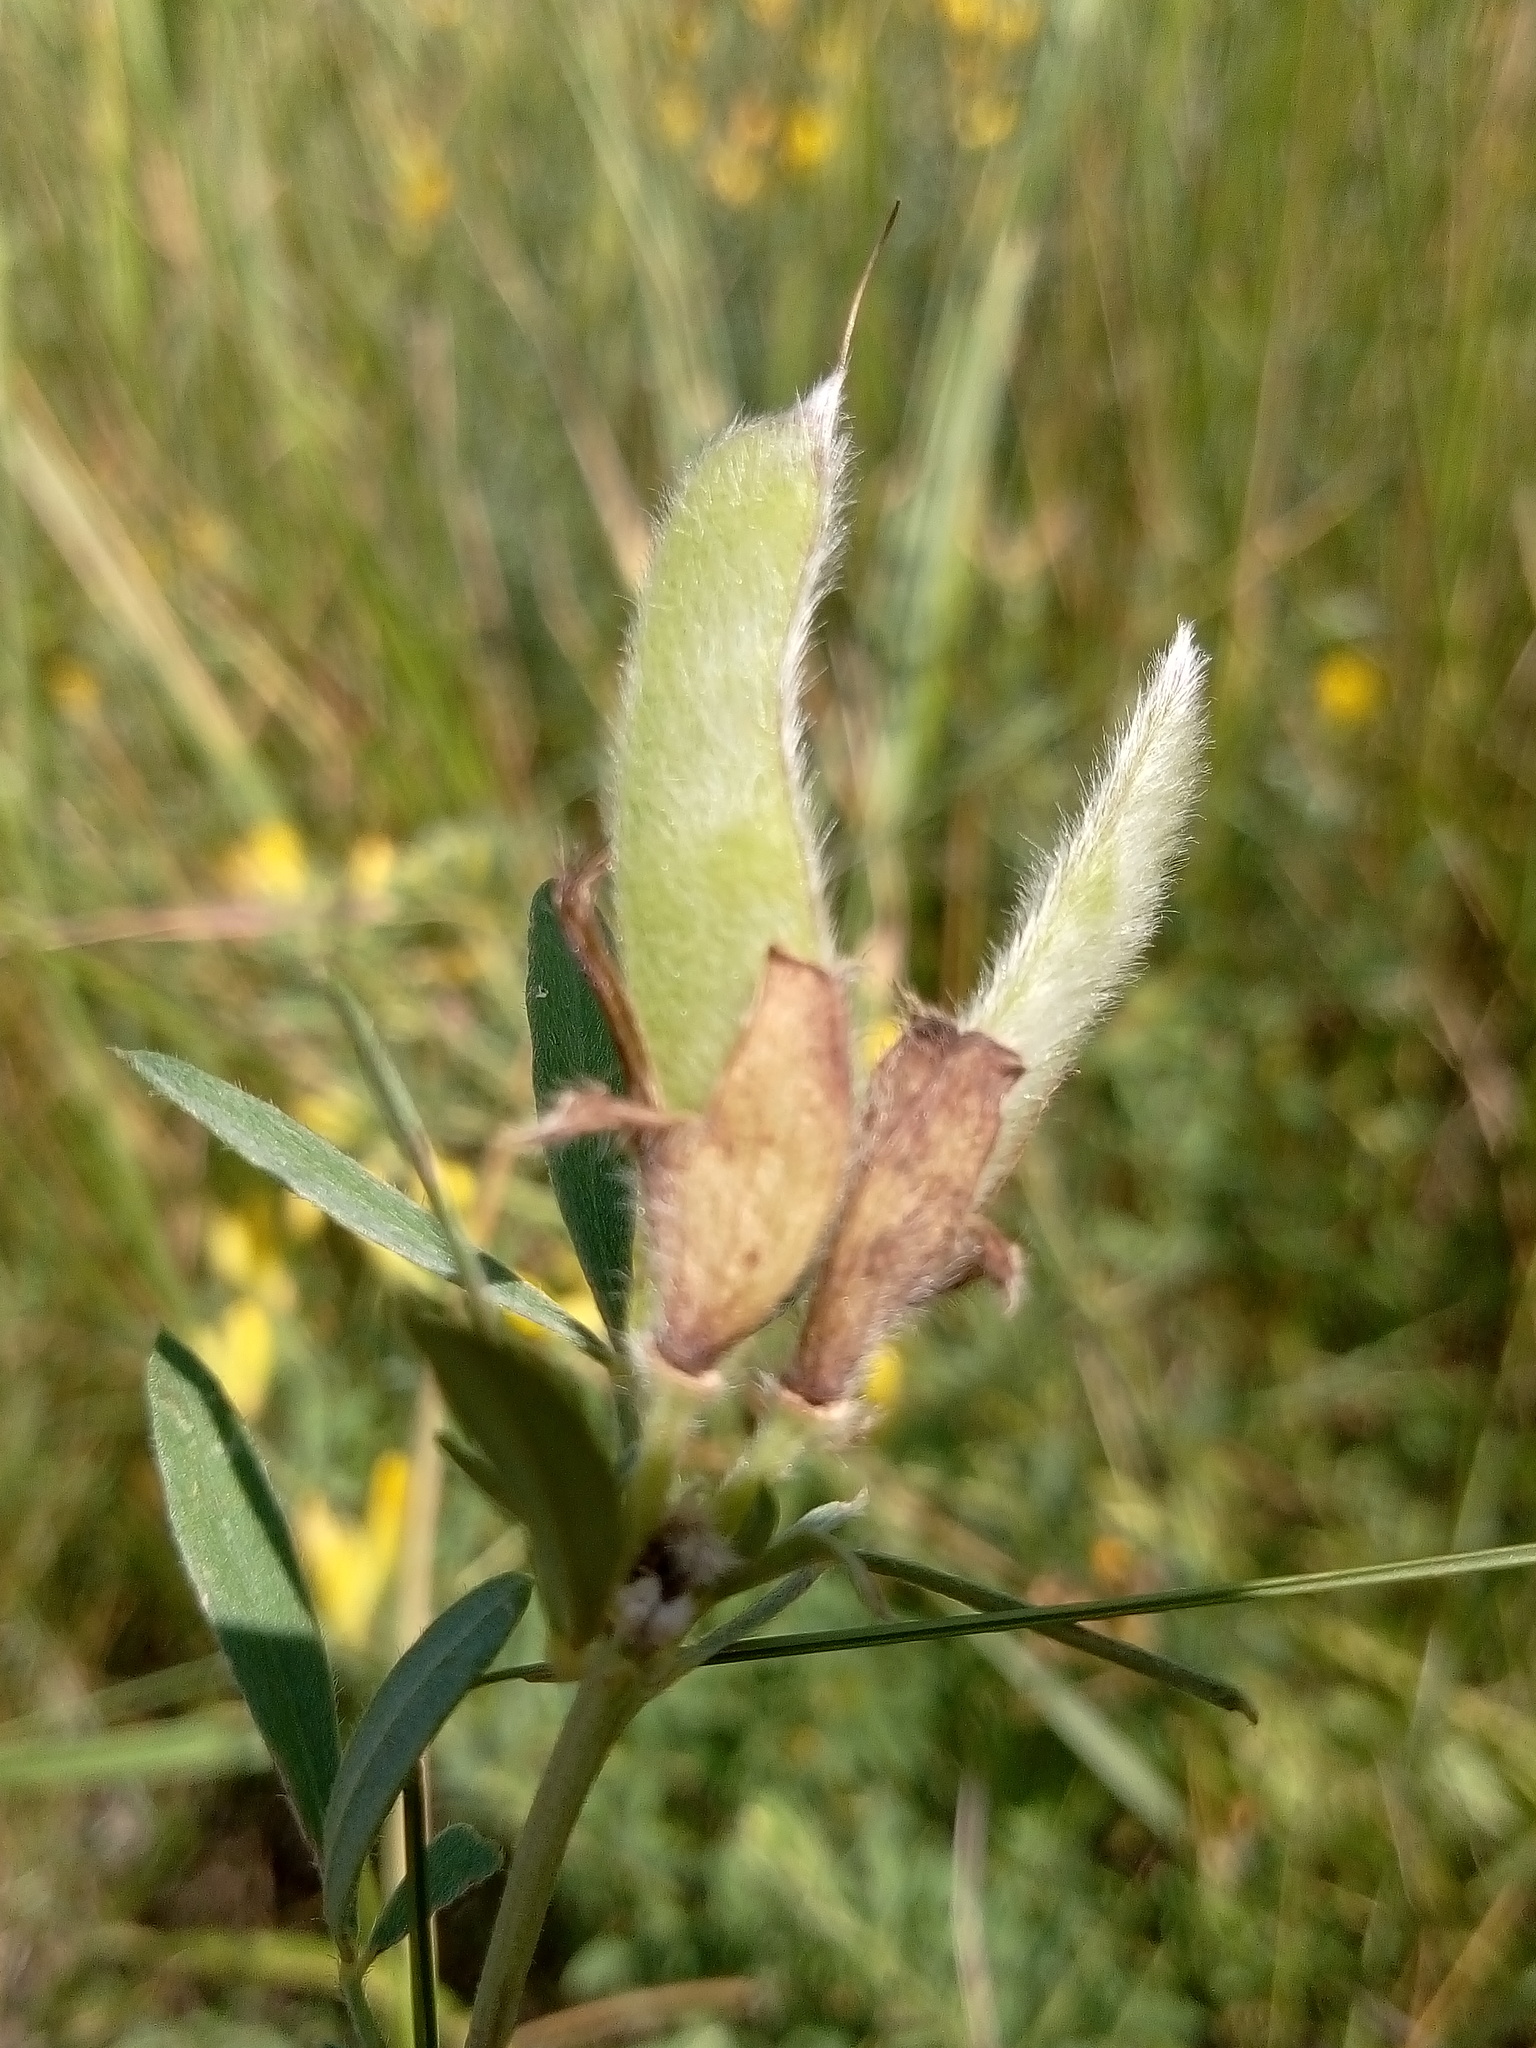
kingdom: Plantae
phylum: Tracheophyta
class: Magnoliopsida
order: Fabales
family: Fabaceae
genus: Chamaecytisus
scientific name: Chamaecytisus austriacus
